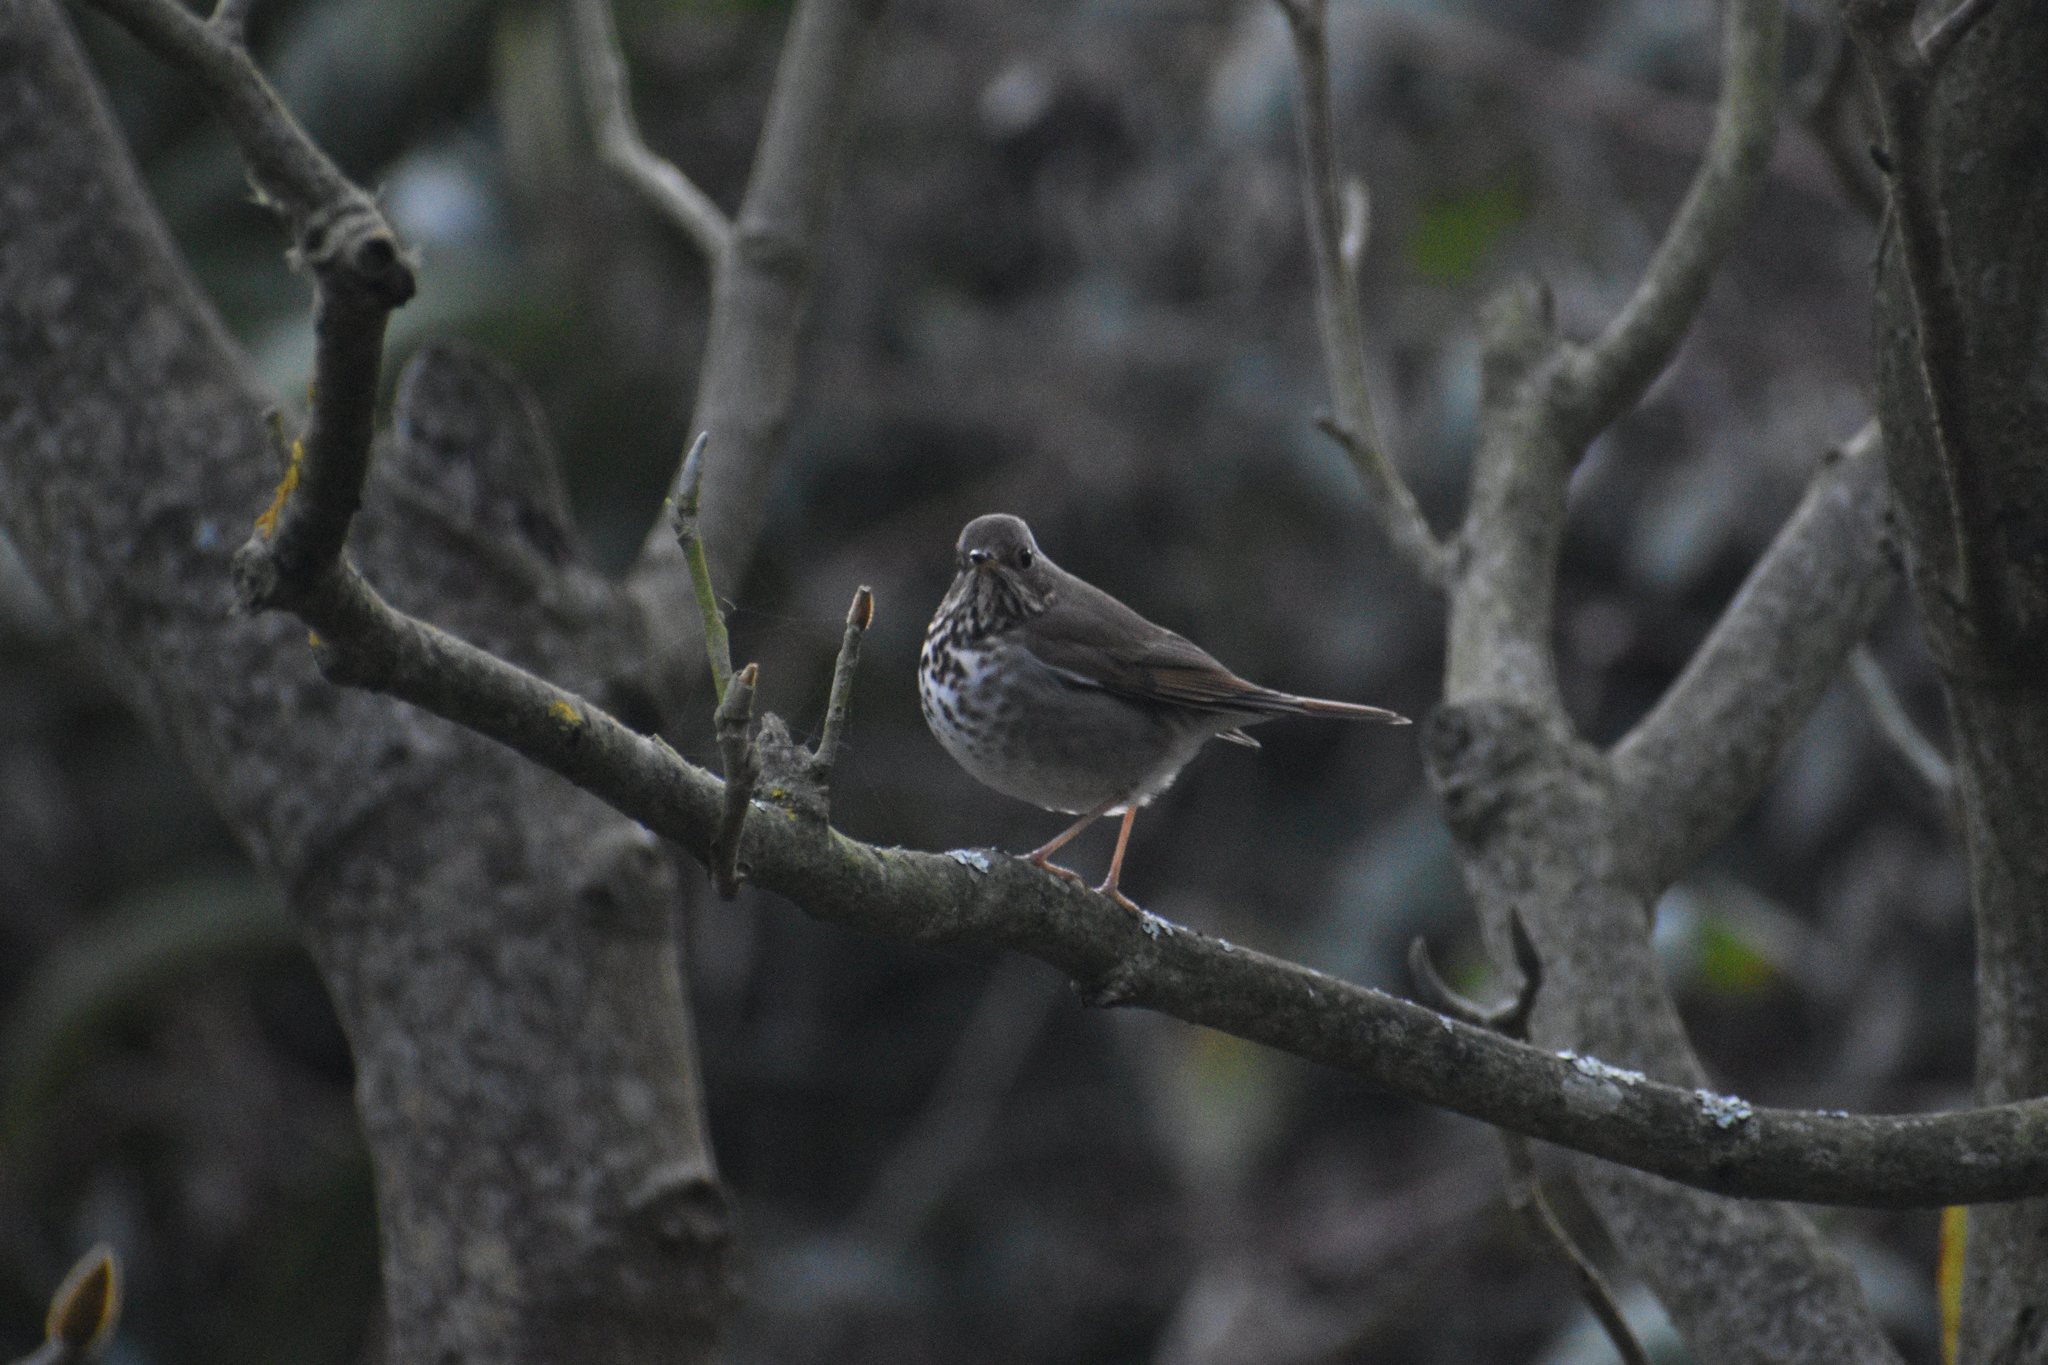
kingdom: Animalia
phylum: Chordata
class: Aves
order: Passeriformes
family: Turdidae
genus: Catharus
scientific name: Catharus guttatus
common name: Hermit thrush
